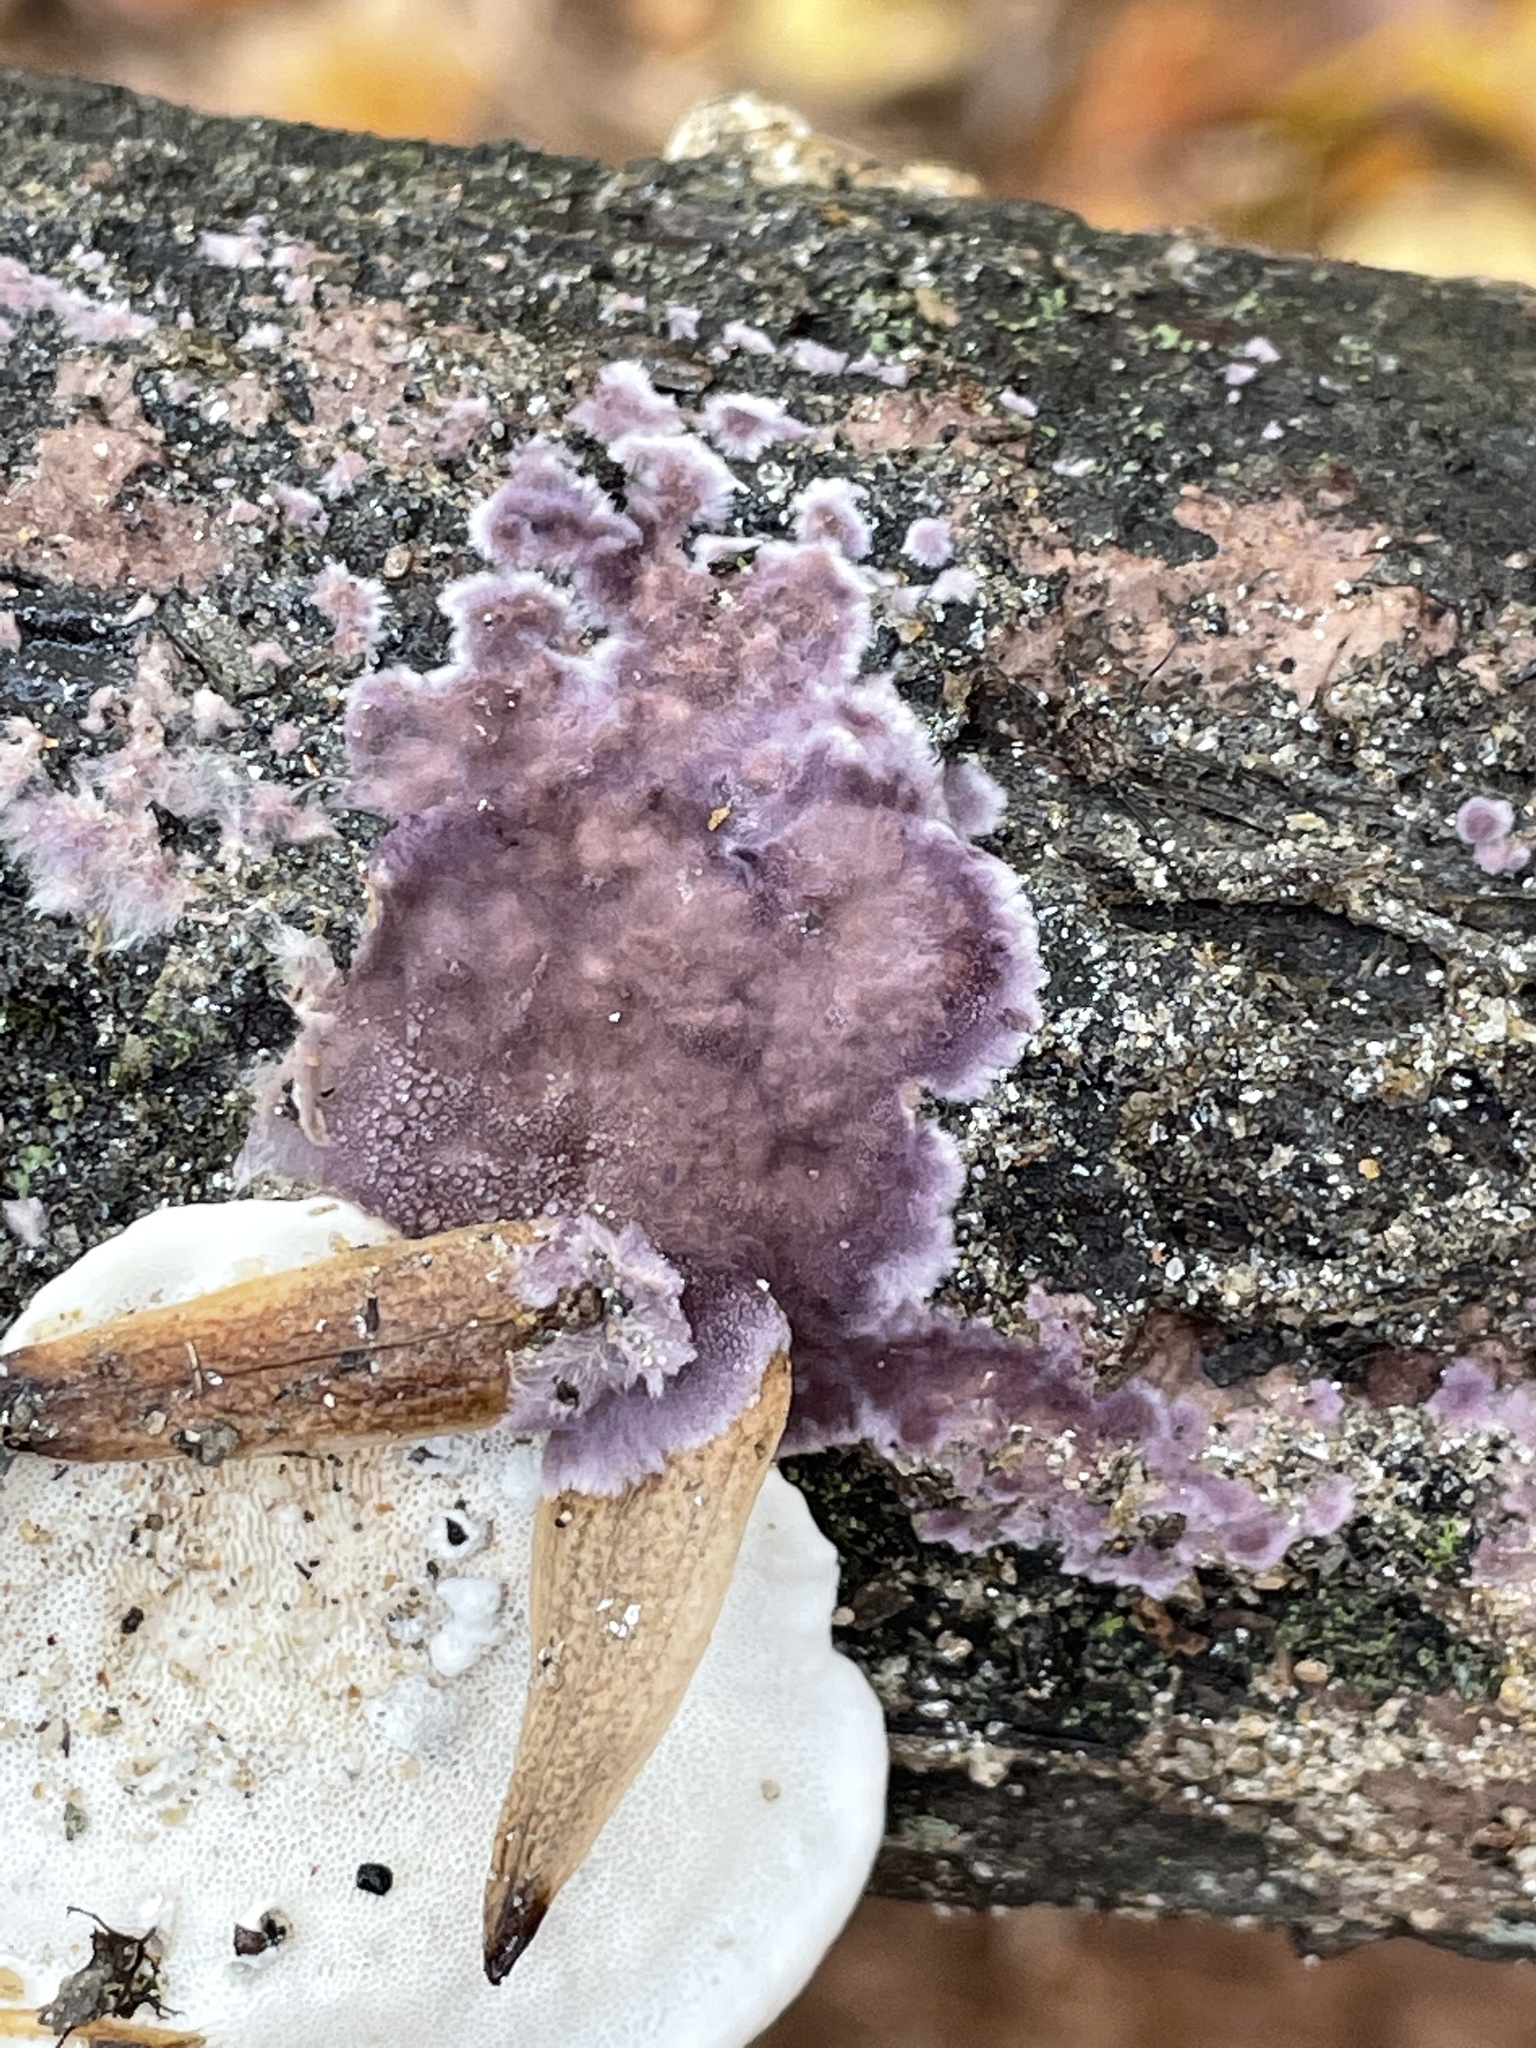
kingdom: Fungi
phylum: Basidiomycota
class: Agaricomycetes
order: Polyporales
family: Phanerochaetaceae
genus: Phlebiopsis
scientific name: Phlebiopsis crassa
